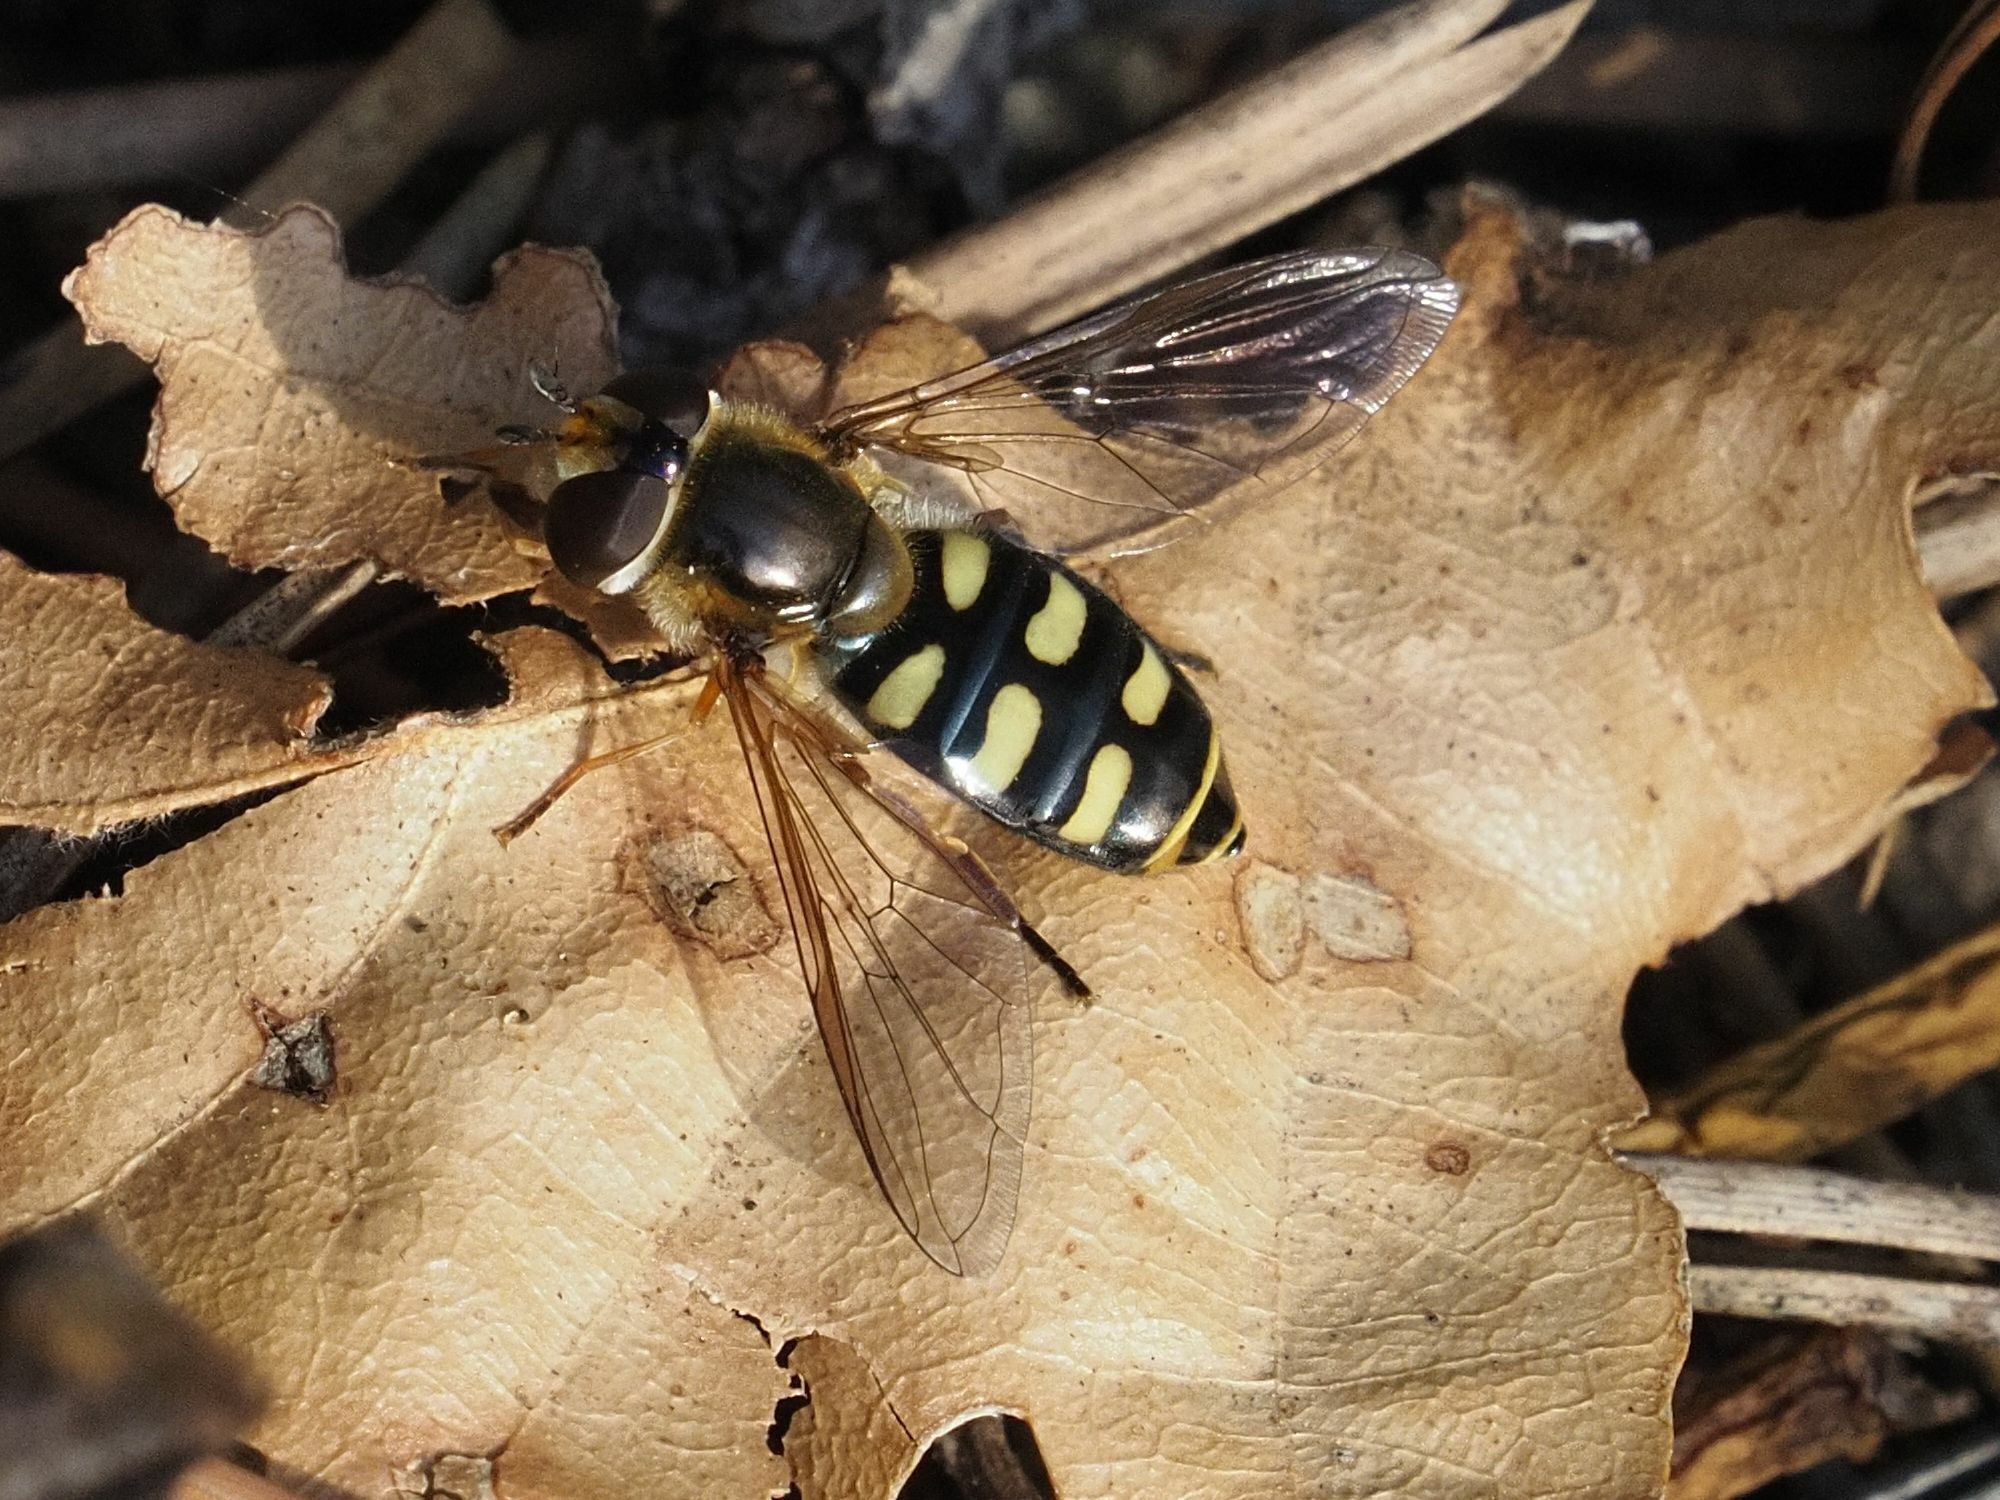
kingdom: Animalia
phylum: Arthropoda
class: Insecta
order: Diptera
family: Syrphidae
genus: Eupeodes
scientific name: Eupeodes luniger
